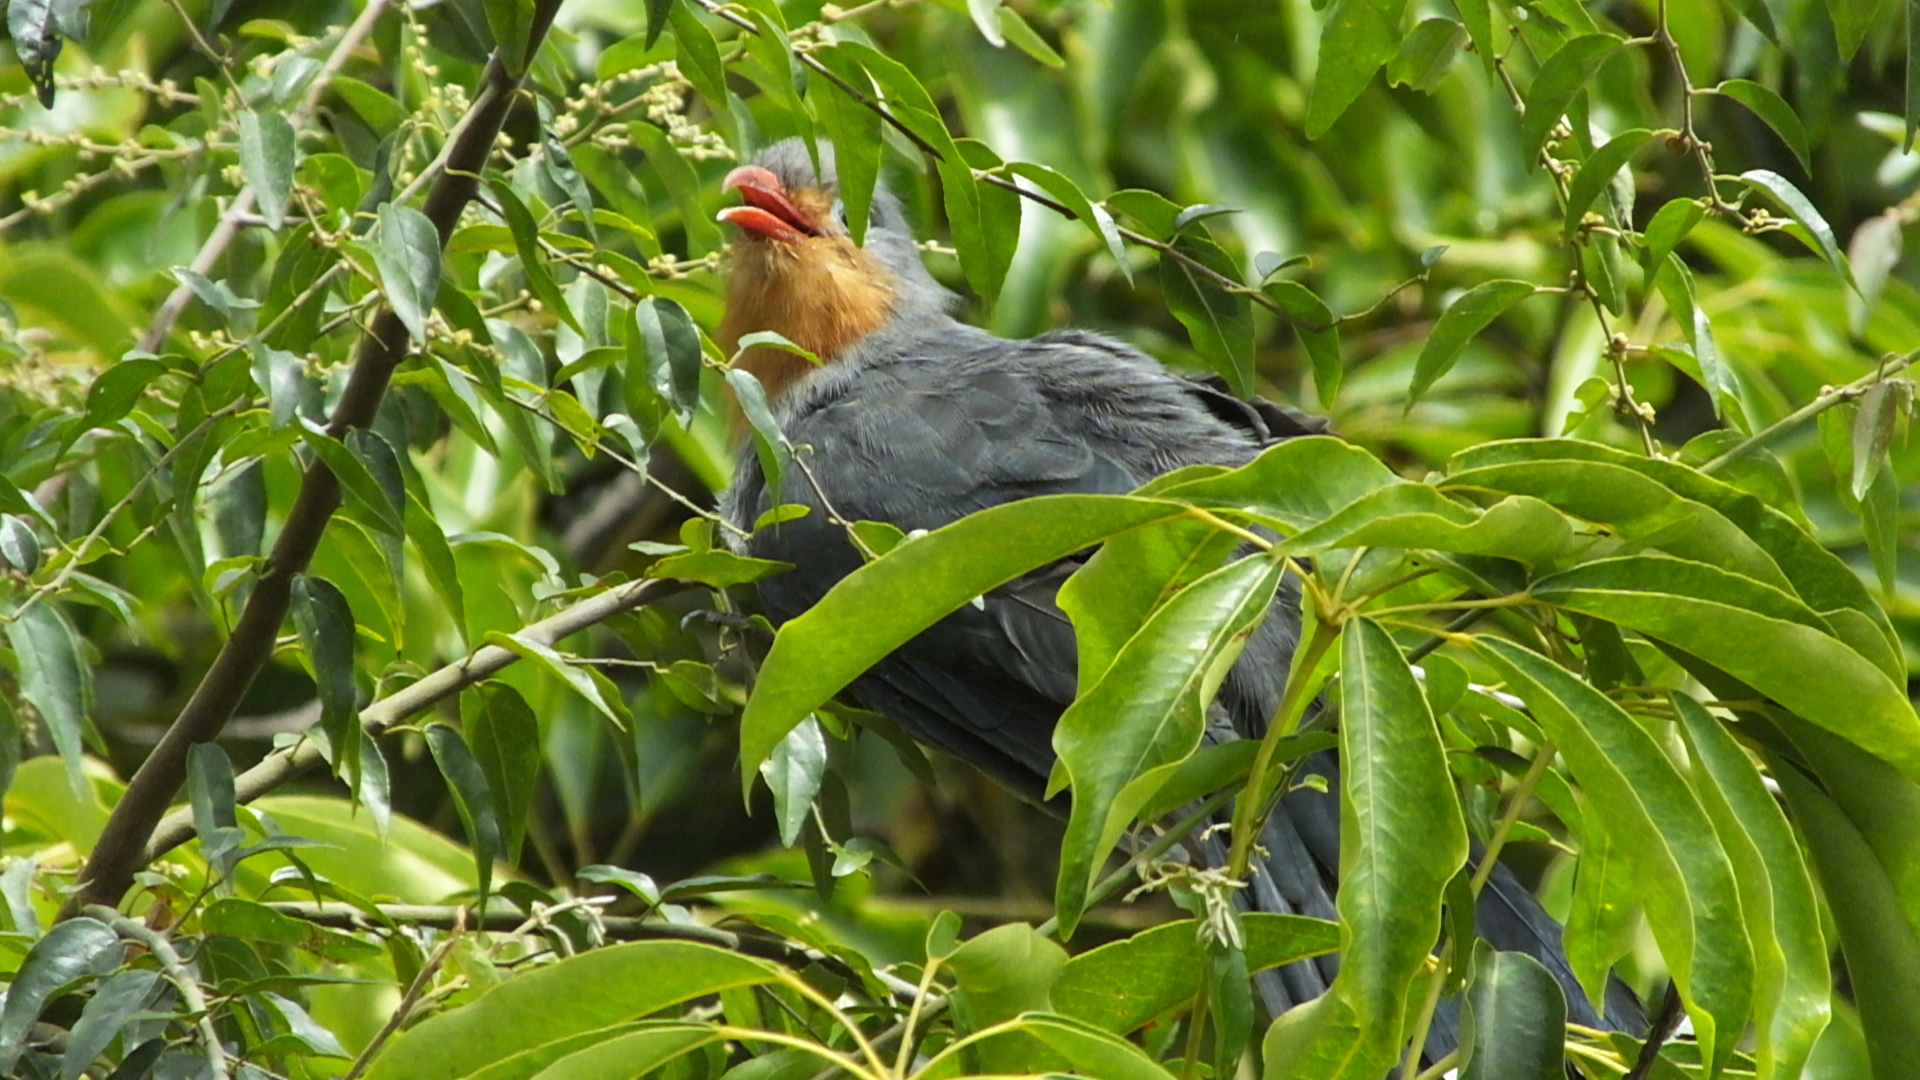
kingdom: Animalia
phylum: Chordata
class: Aves
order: Cuculiformes
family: Cuculidae
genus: Zanclostomus
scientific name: Zanclostomus javanicus
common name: Red-billed malkoha
